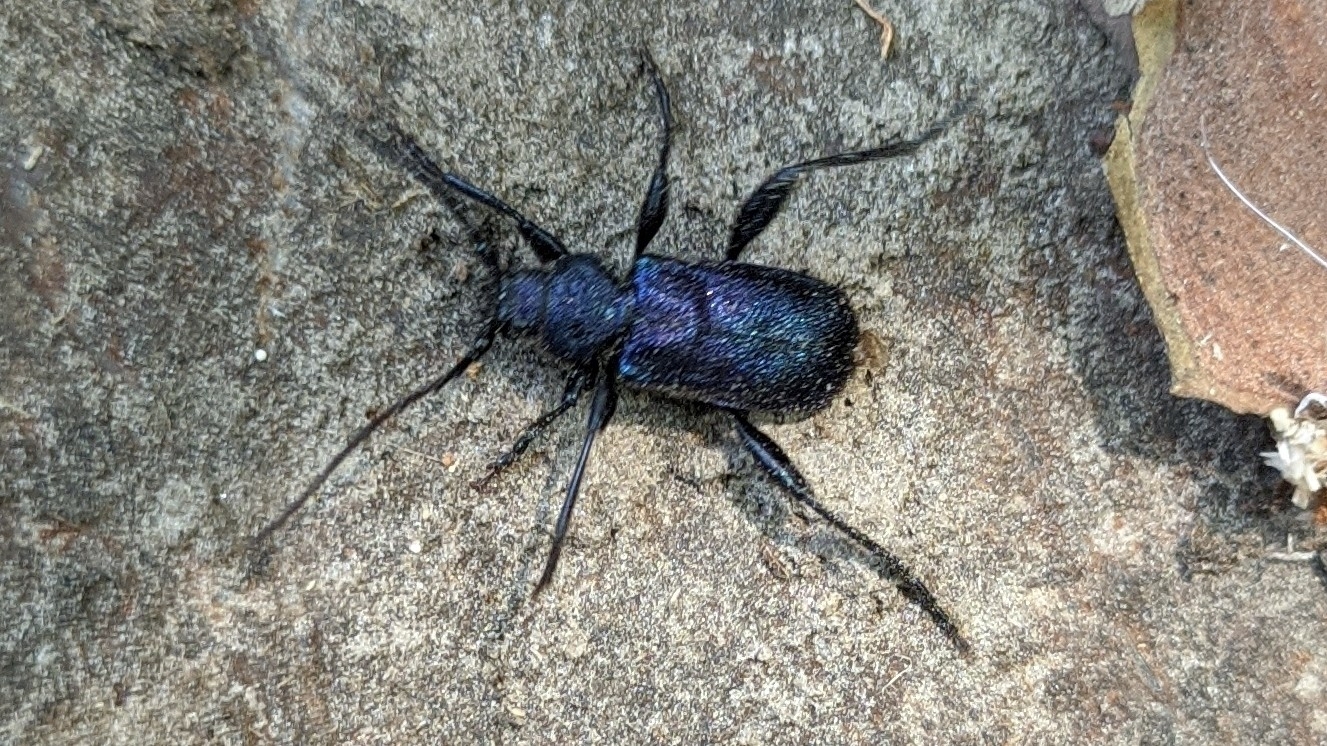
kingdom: Animalia
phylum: Arthropoda
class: Insecta
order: Coleoptera
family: Cerambycidae
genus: Callidium
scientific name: Callidium violaceum
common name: Violet tanbark beetle
